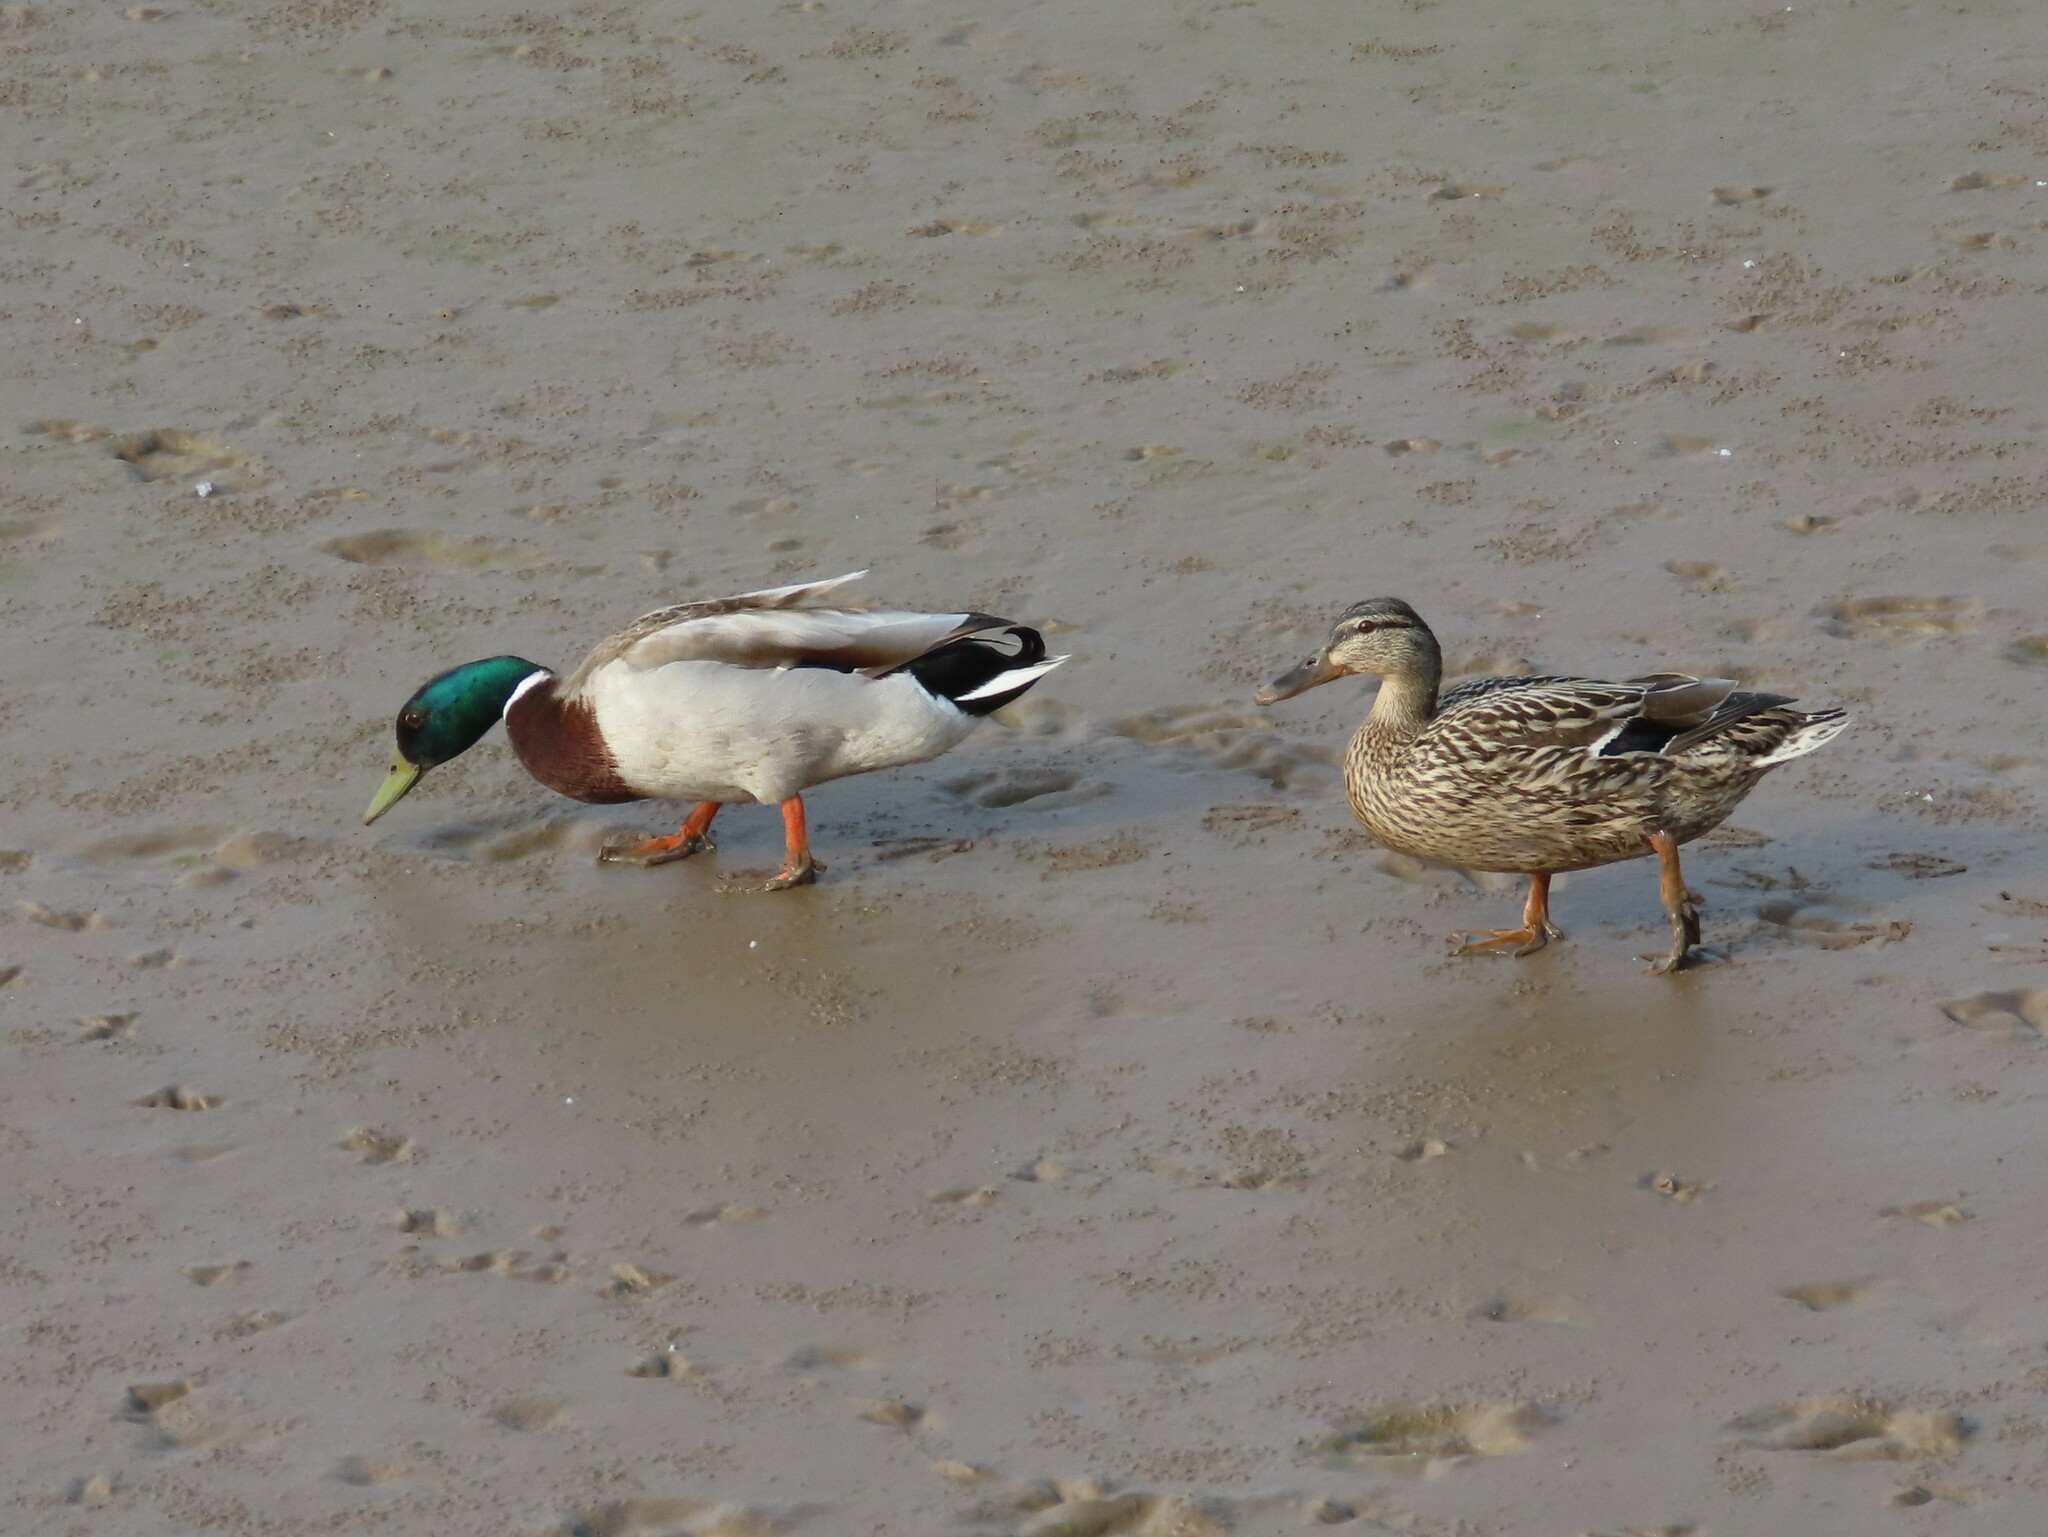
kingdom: Animalia
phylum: Chordata
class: Aves
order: Anseriformes
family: Anatidae
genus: Anas
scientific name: Anas platyrhynchos
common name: Mallard
